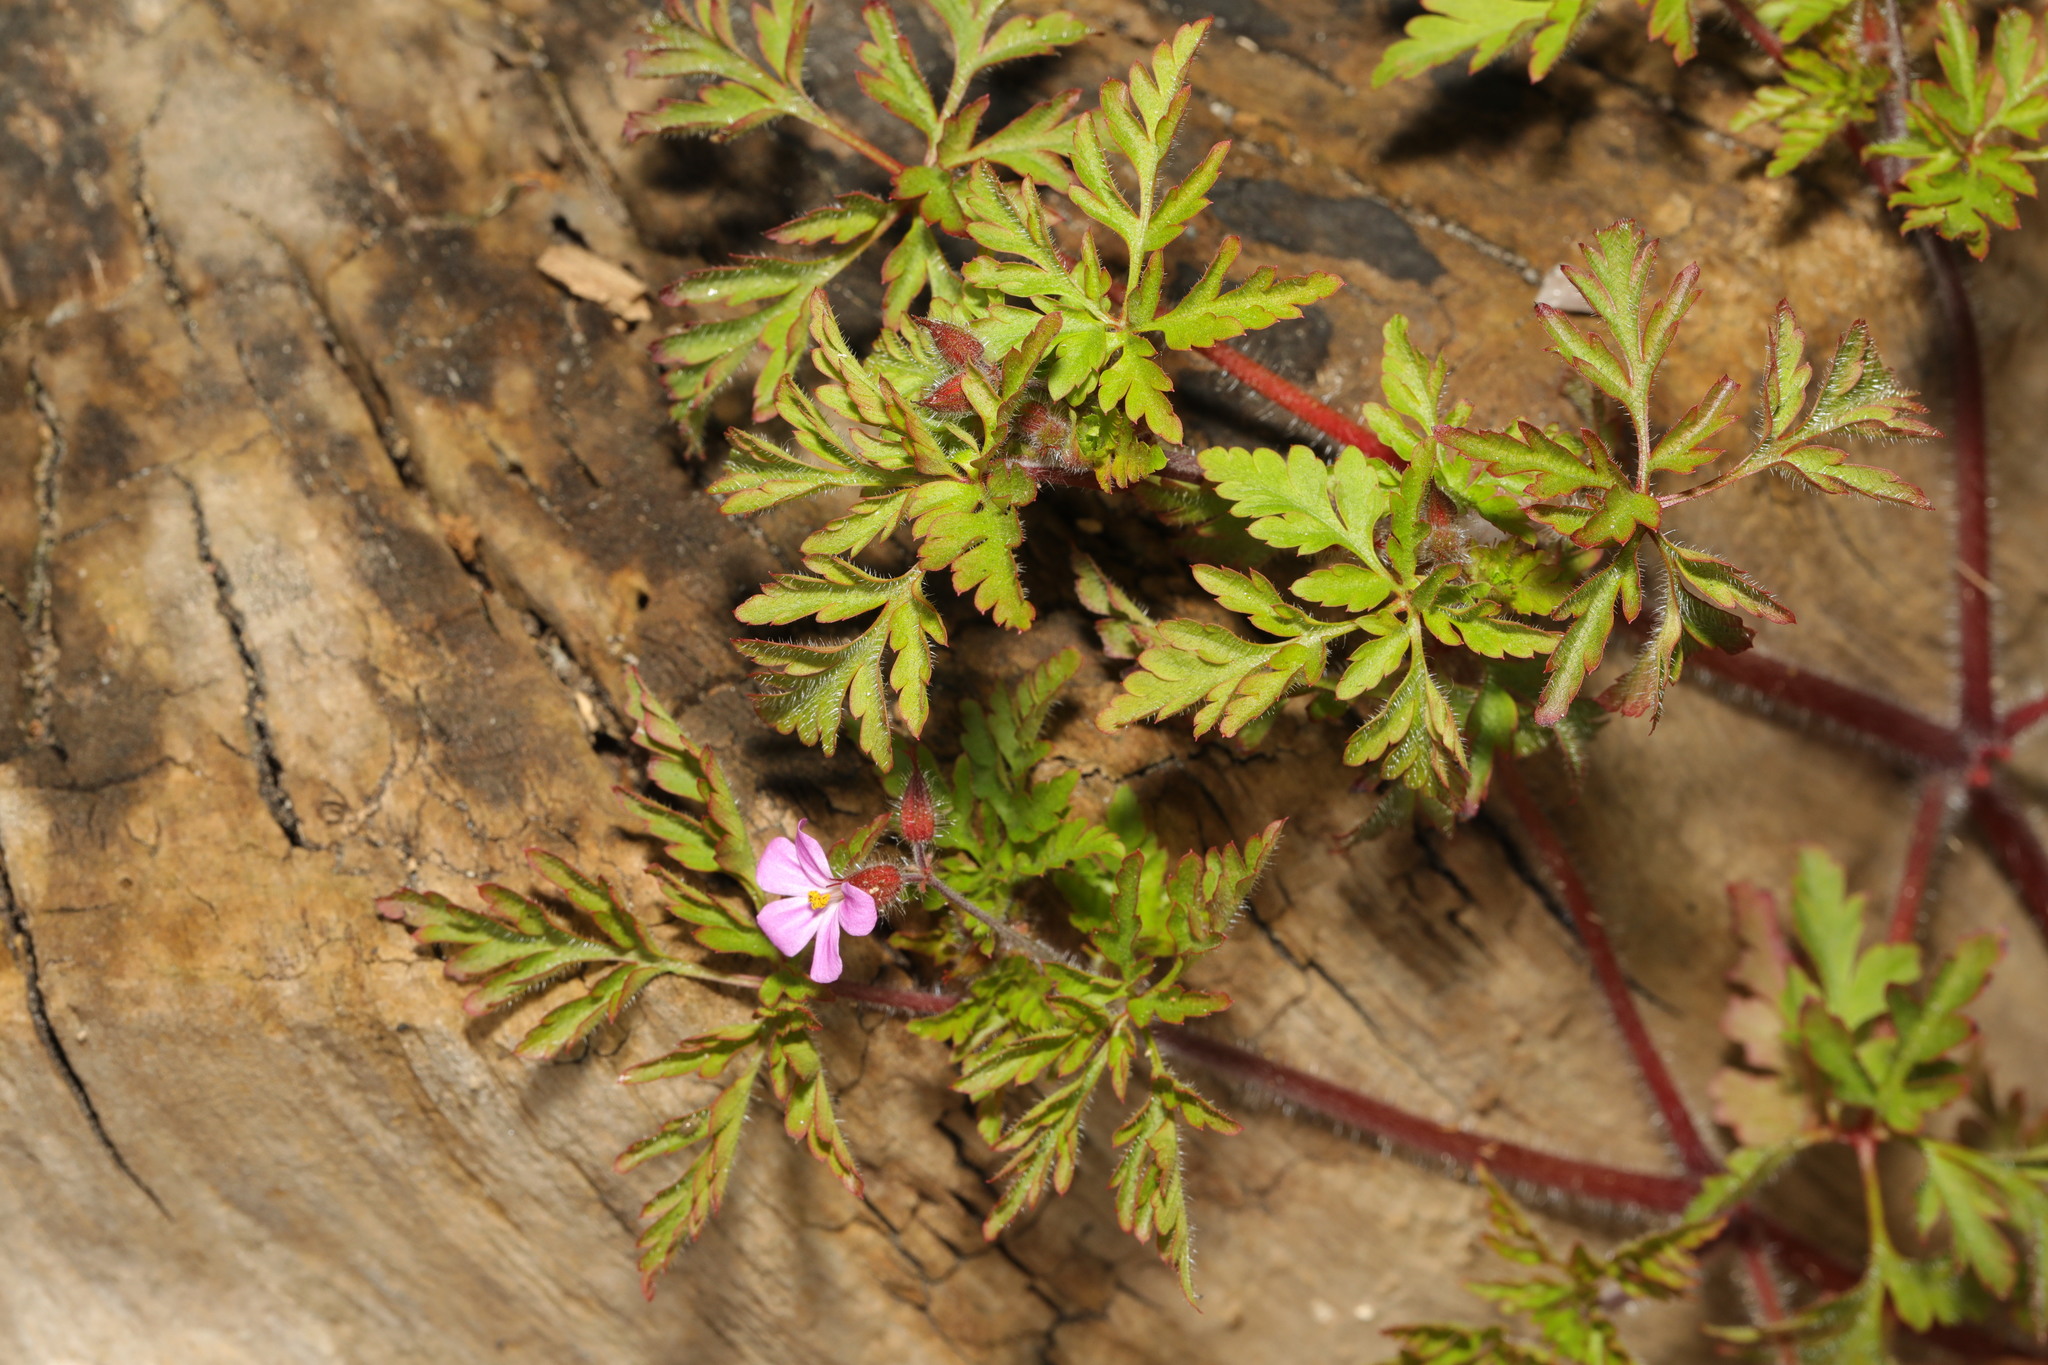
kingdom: Plantae
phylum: Tracheophyta
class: Magnoliopsida
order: Geraniales
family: Geraniaceae
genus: Geranium
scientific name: Geranium robertianum
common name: Herb-robert
